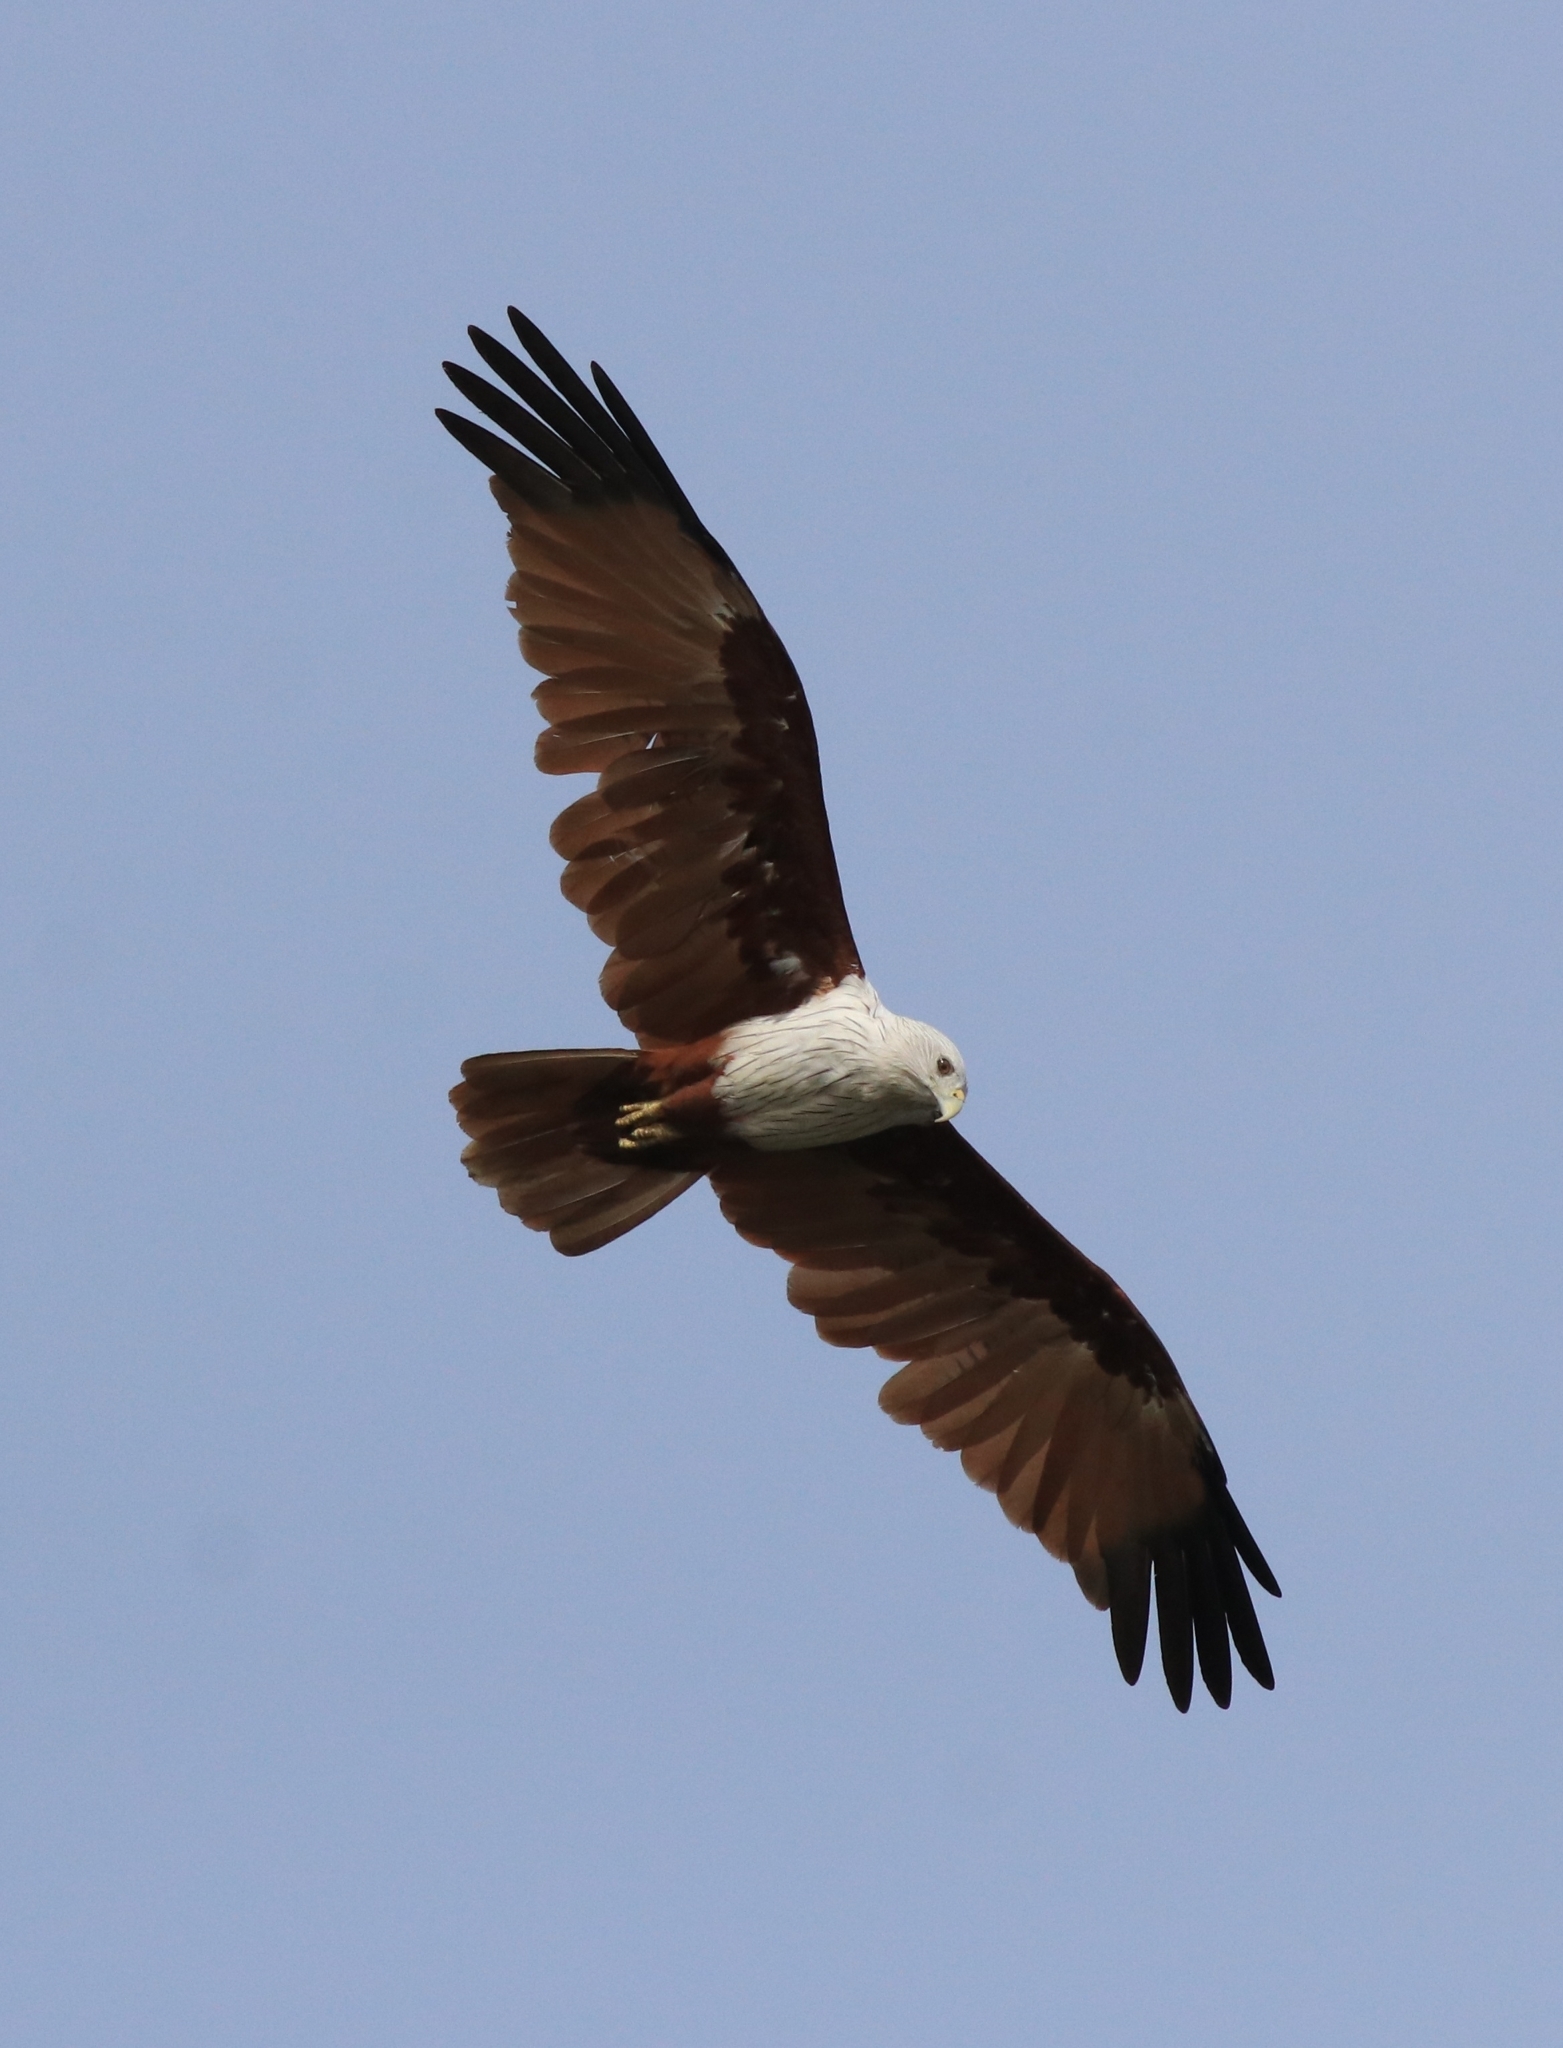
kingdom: Animalia
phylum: Chordata
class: Aves
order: Accipitriformes
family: Accipitridae
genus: Haliastur
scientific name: Haliastur indus
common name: Brahminy kite
